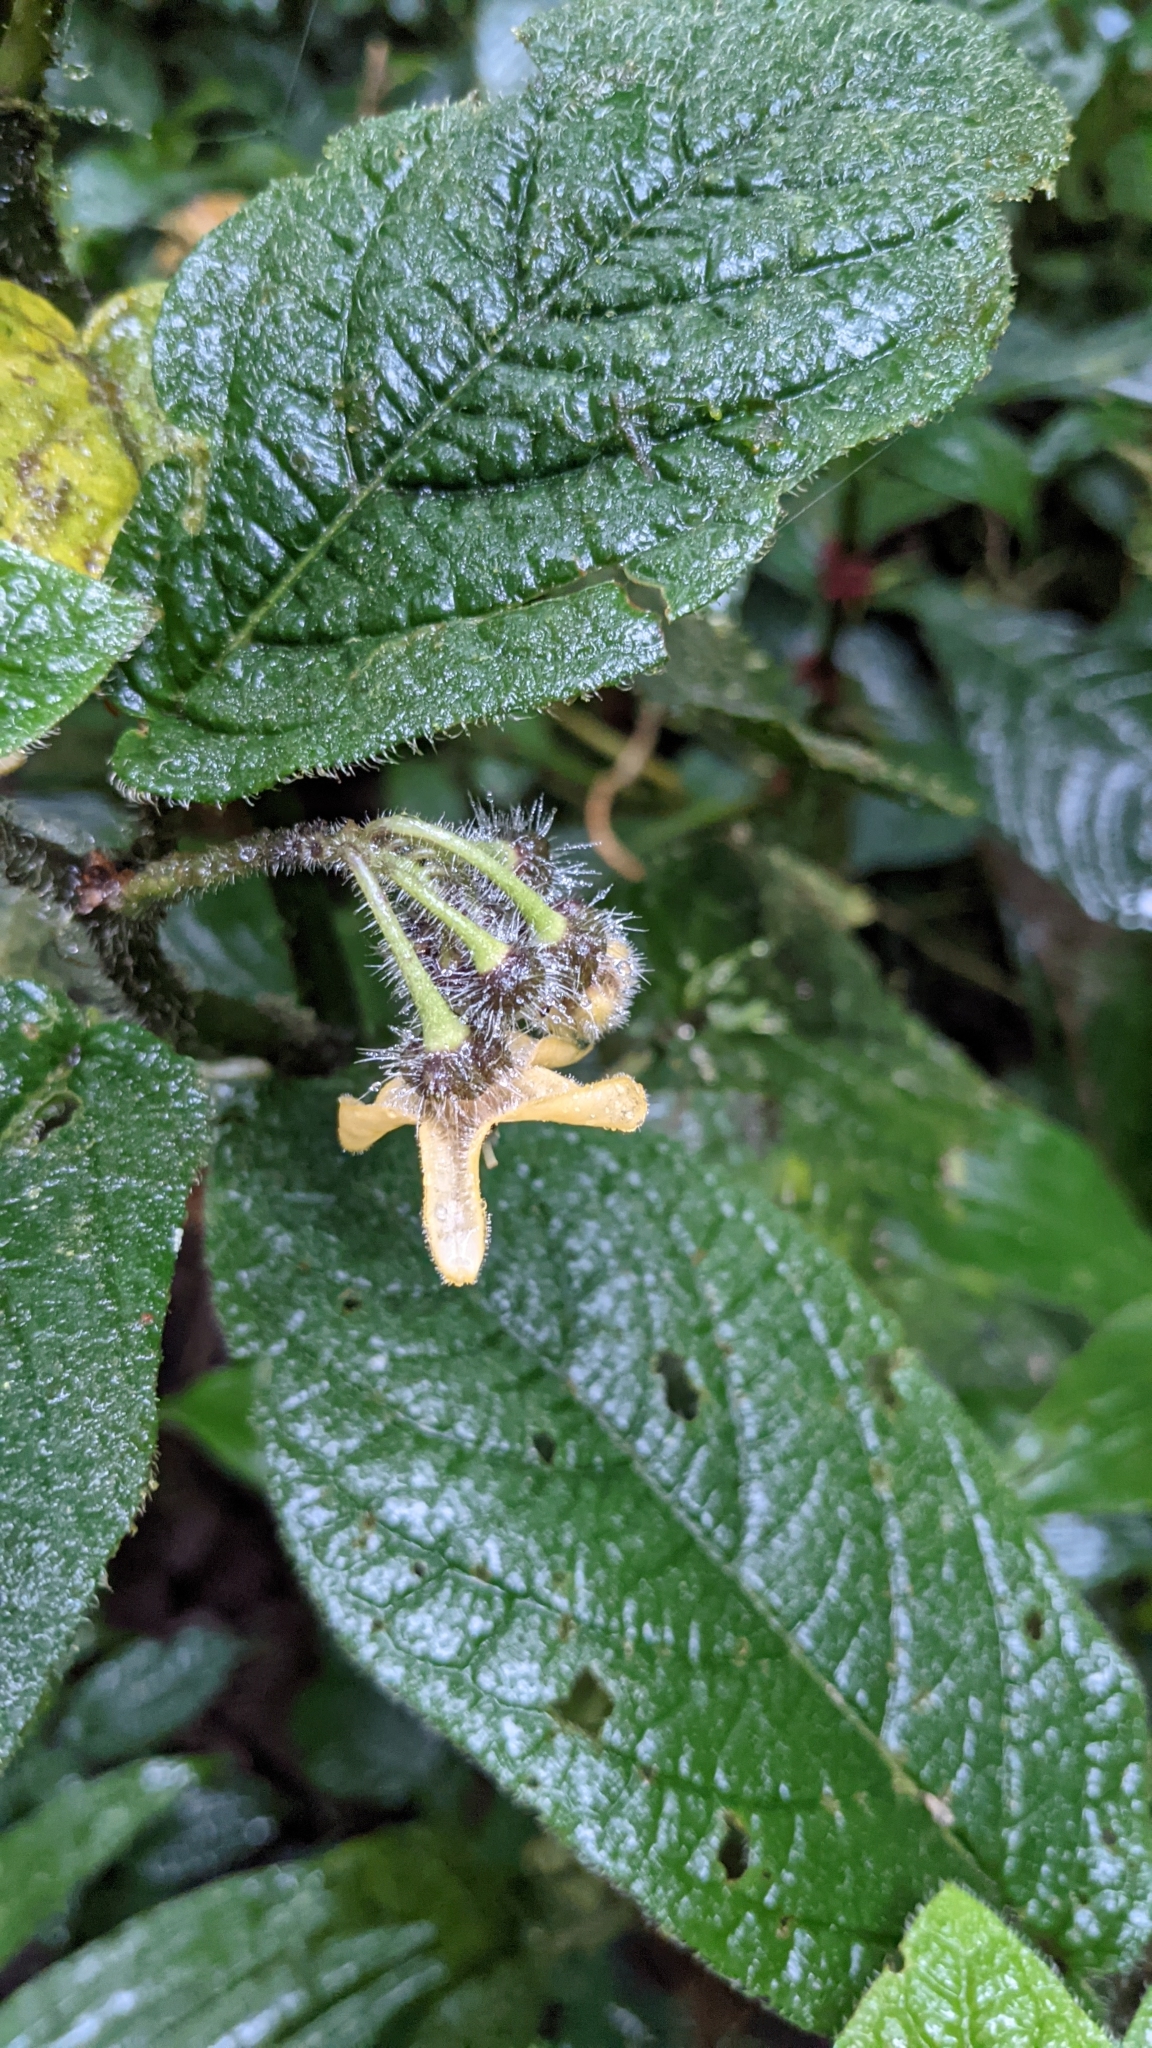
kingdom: Plantae
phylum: Tracheophyta
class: Magnoliopsida
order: Solanales
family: Solanaceae
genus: Witheringia
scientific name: Witheringia maculata
